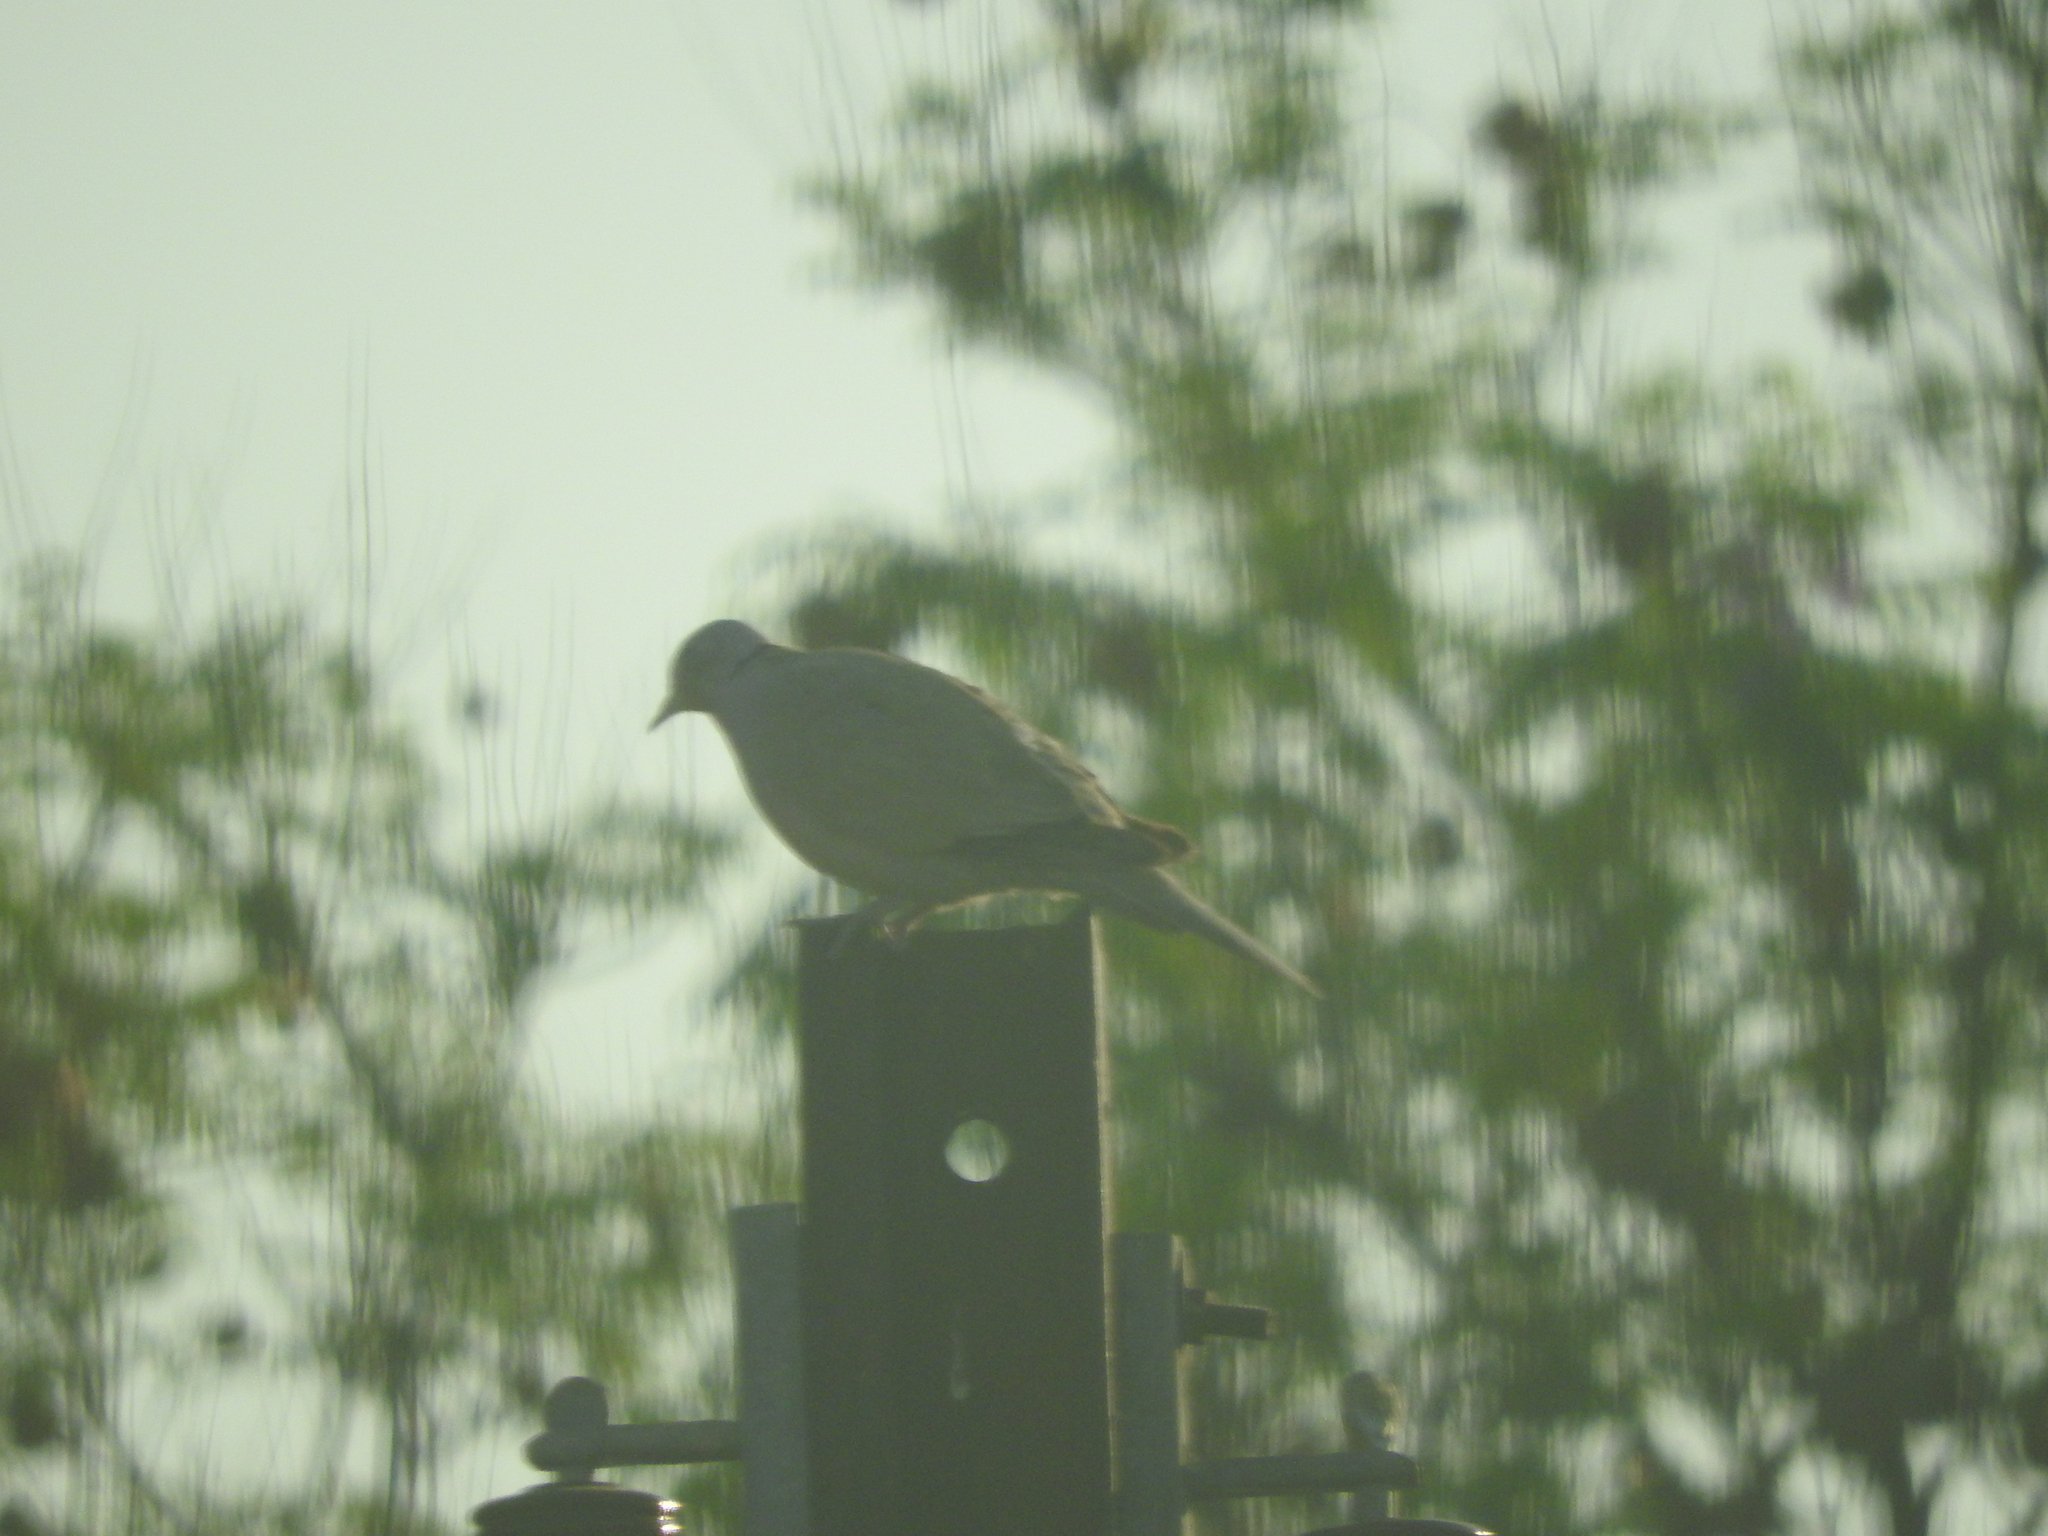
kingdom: Animalia
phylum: Chordata
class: Aves
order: Columbiformes
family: Columbidae
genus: Streptopelia
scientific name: Streptopelia decaocto
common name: Eurasian collared dove
